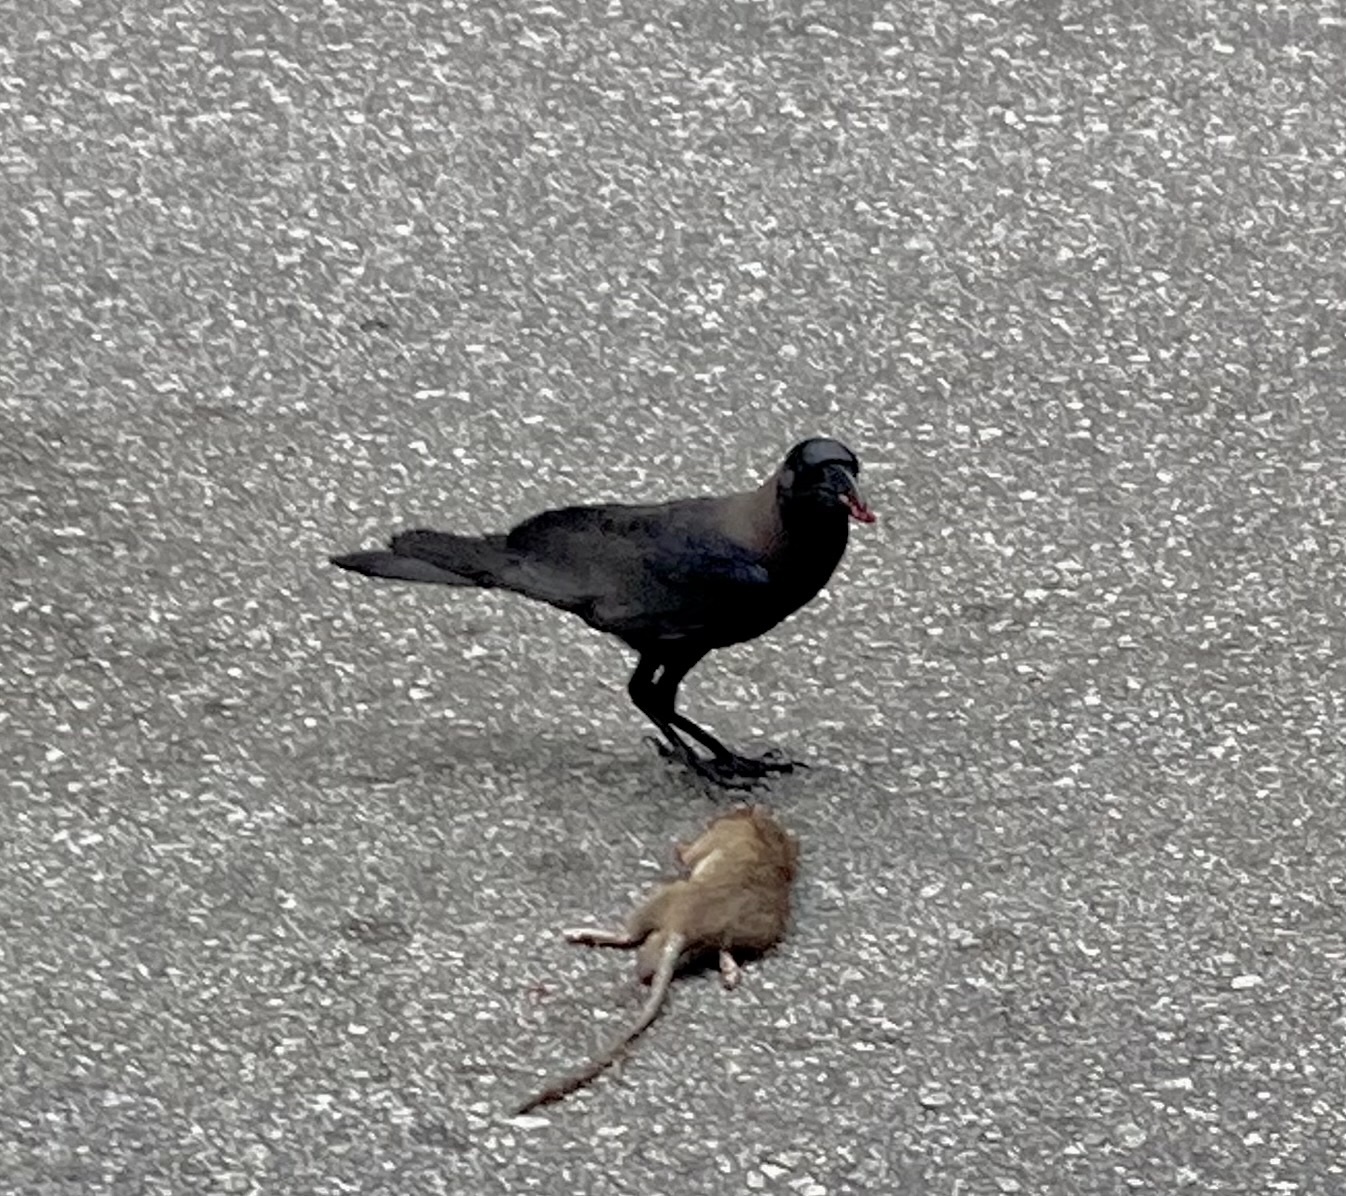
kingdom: Animalia
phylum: Chordata
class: Aves
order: Passeriformes
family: Corvidae
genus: Corvus
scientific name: Corvus splendens
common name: House crow
